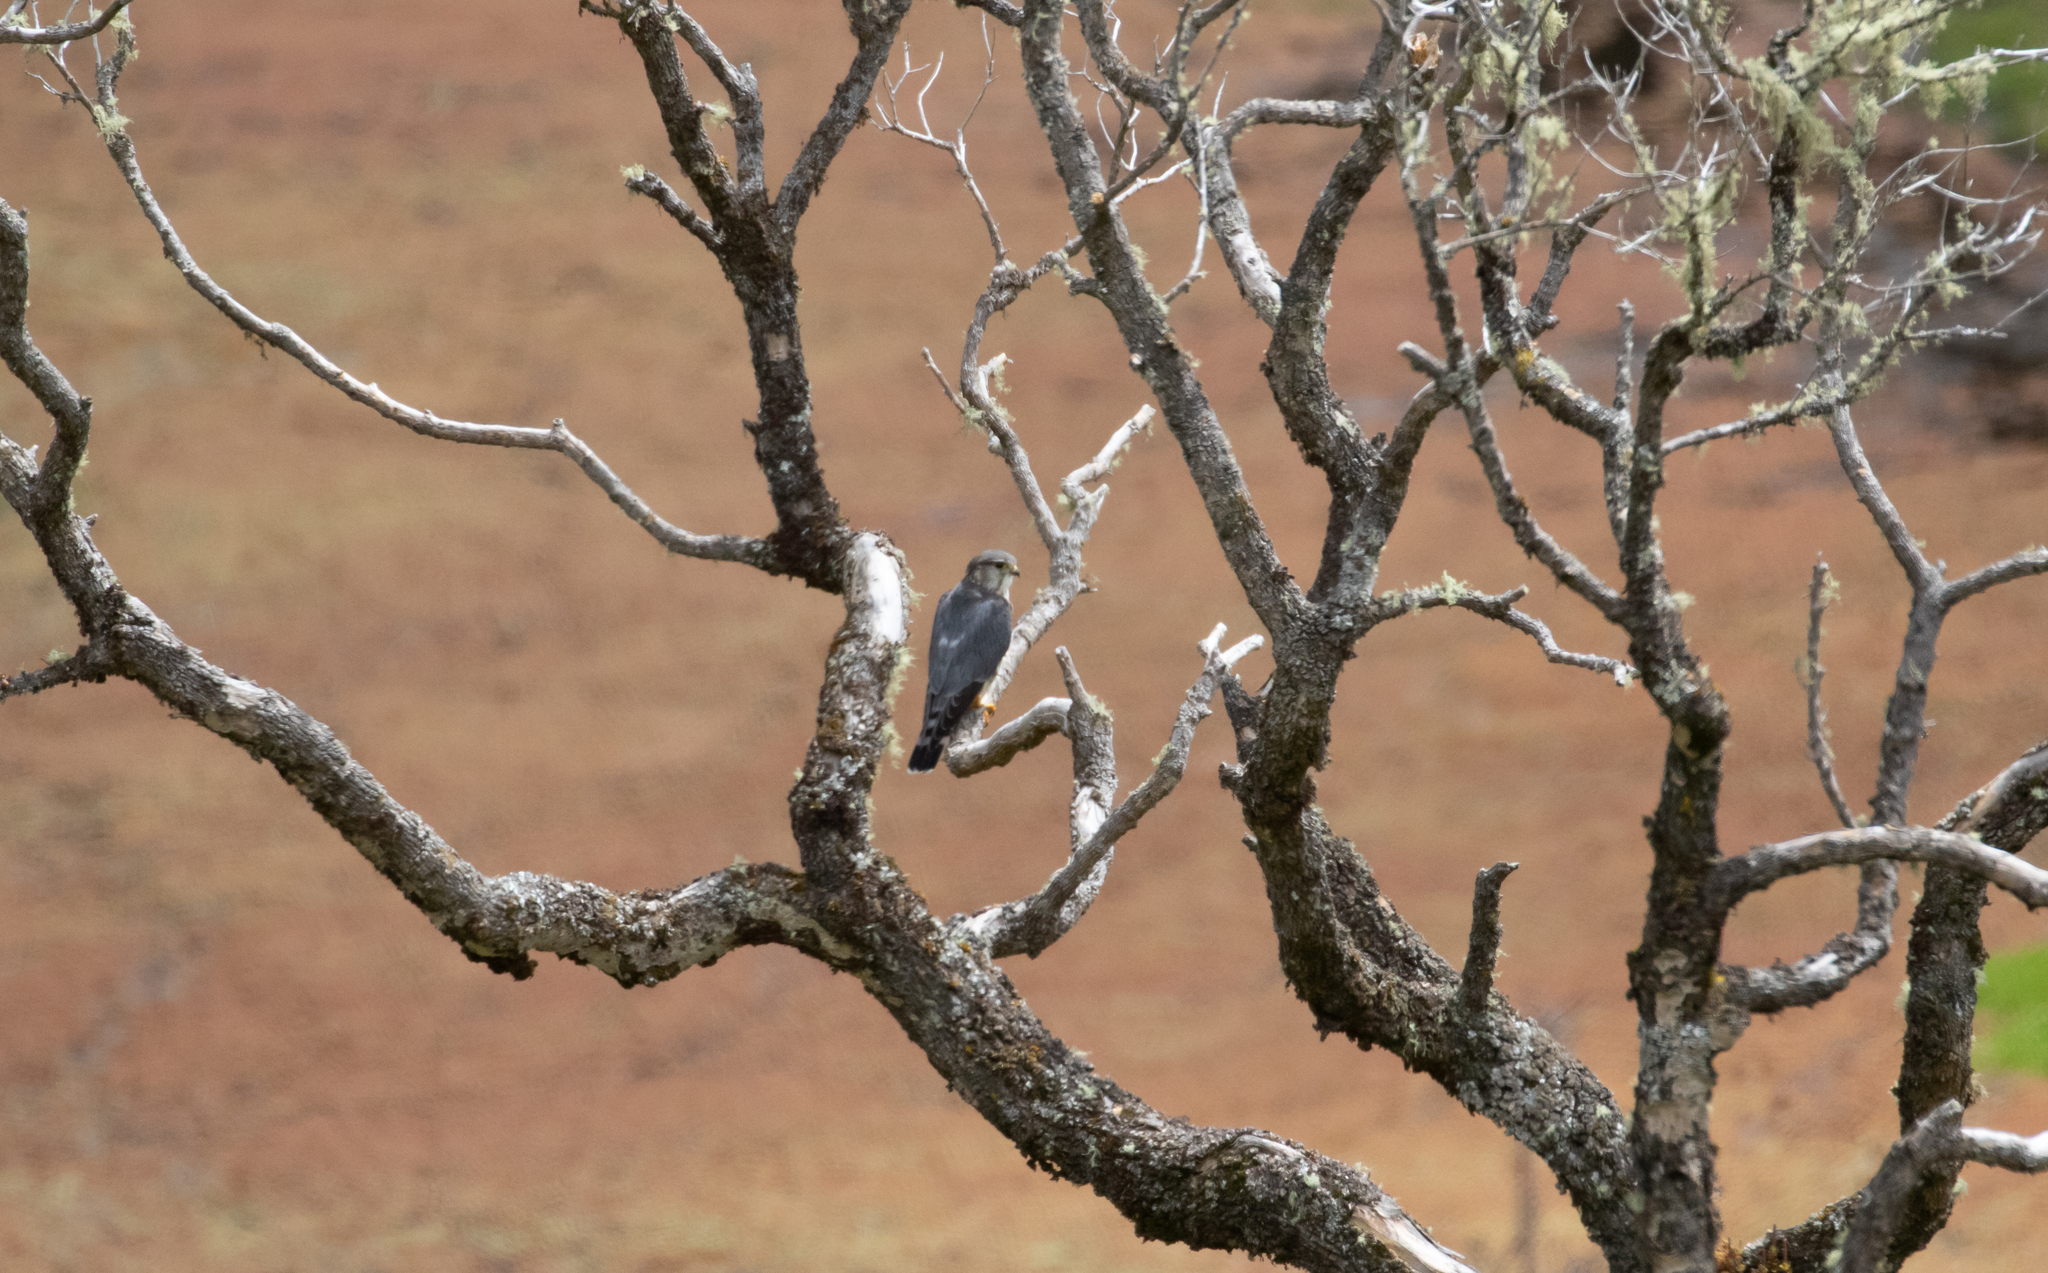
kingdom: Animalia
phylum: Chordata
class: Aves
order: Falconiformes
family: Falconidae
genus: Falco
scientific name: Falco columbarius
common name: Merlin
